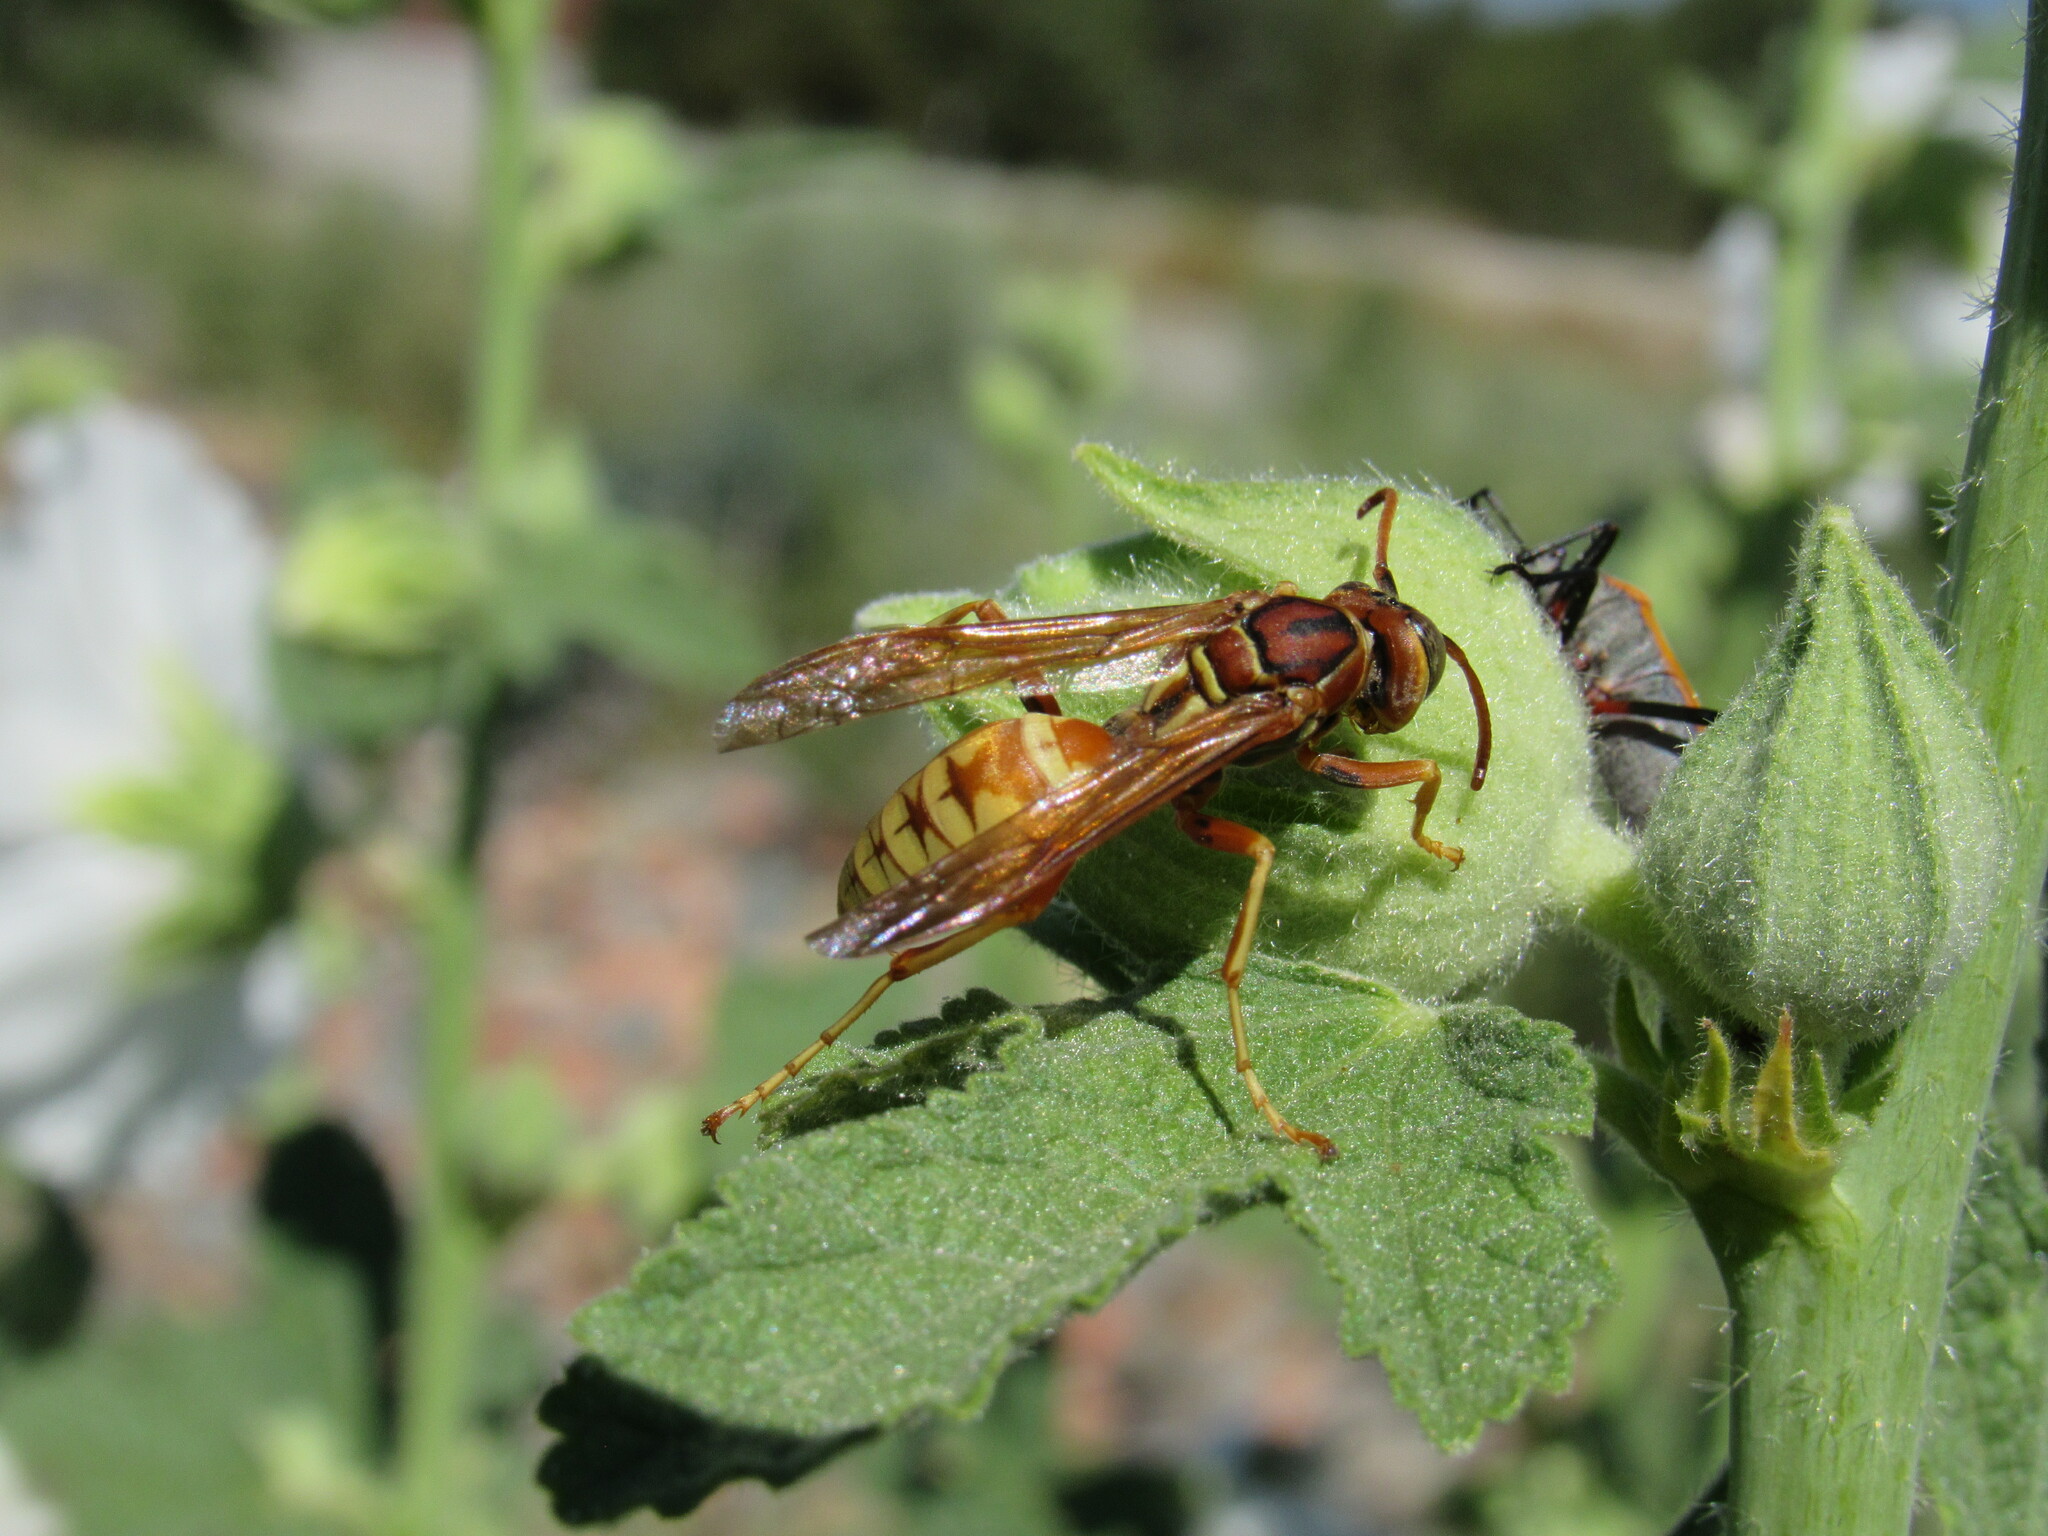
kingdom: Animalia
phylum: Arthropoda
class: Insecta
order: Hymenoptera
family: Eumenidae
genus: Polistes
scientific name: Polistes aurifer
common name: Paper wasp
